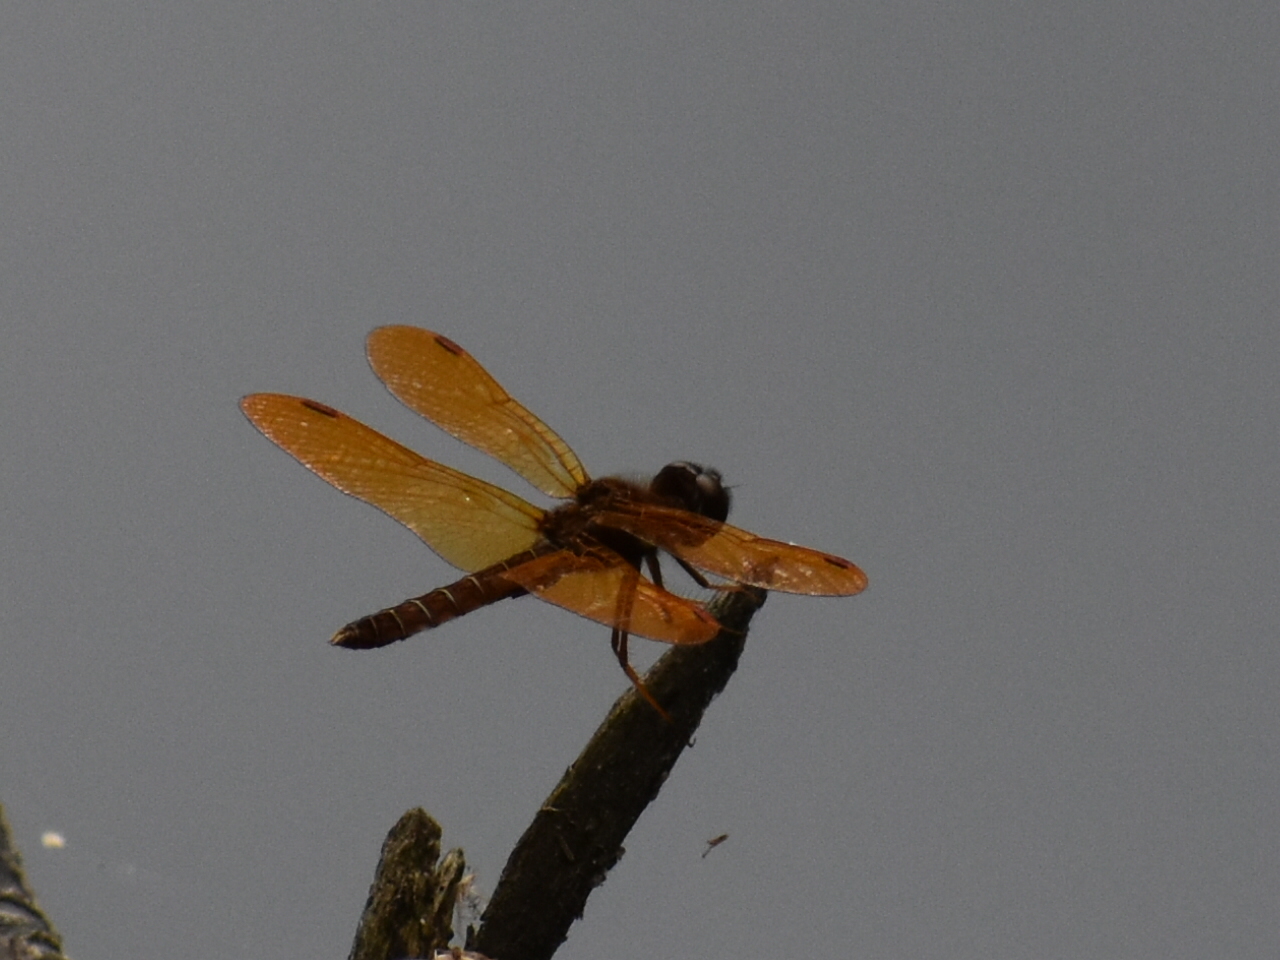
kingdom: Animalia
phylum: Arthropoda
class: Insecta
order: Odonata
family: Libellulidae
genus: Perithemis
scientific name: Perithemis tenera
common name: Eastern amberwing
